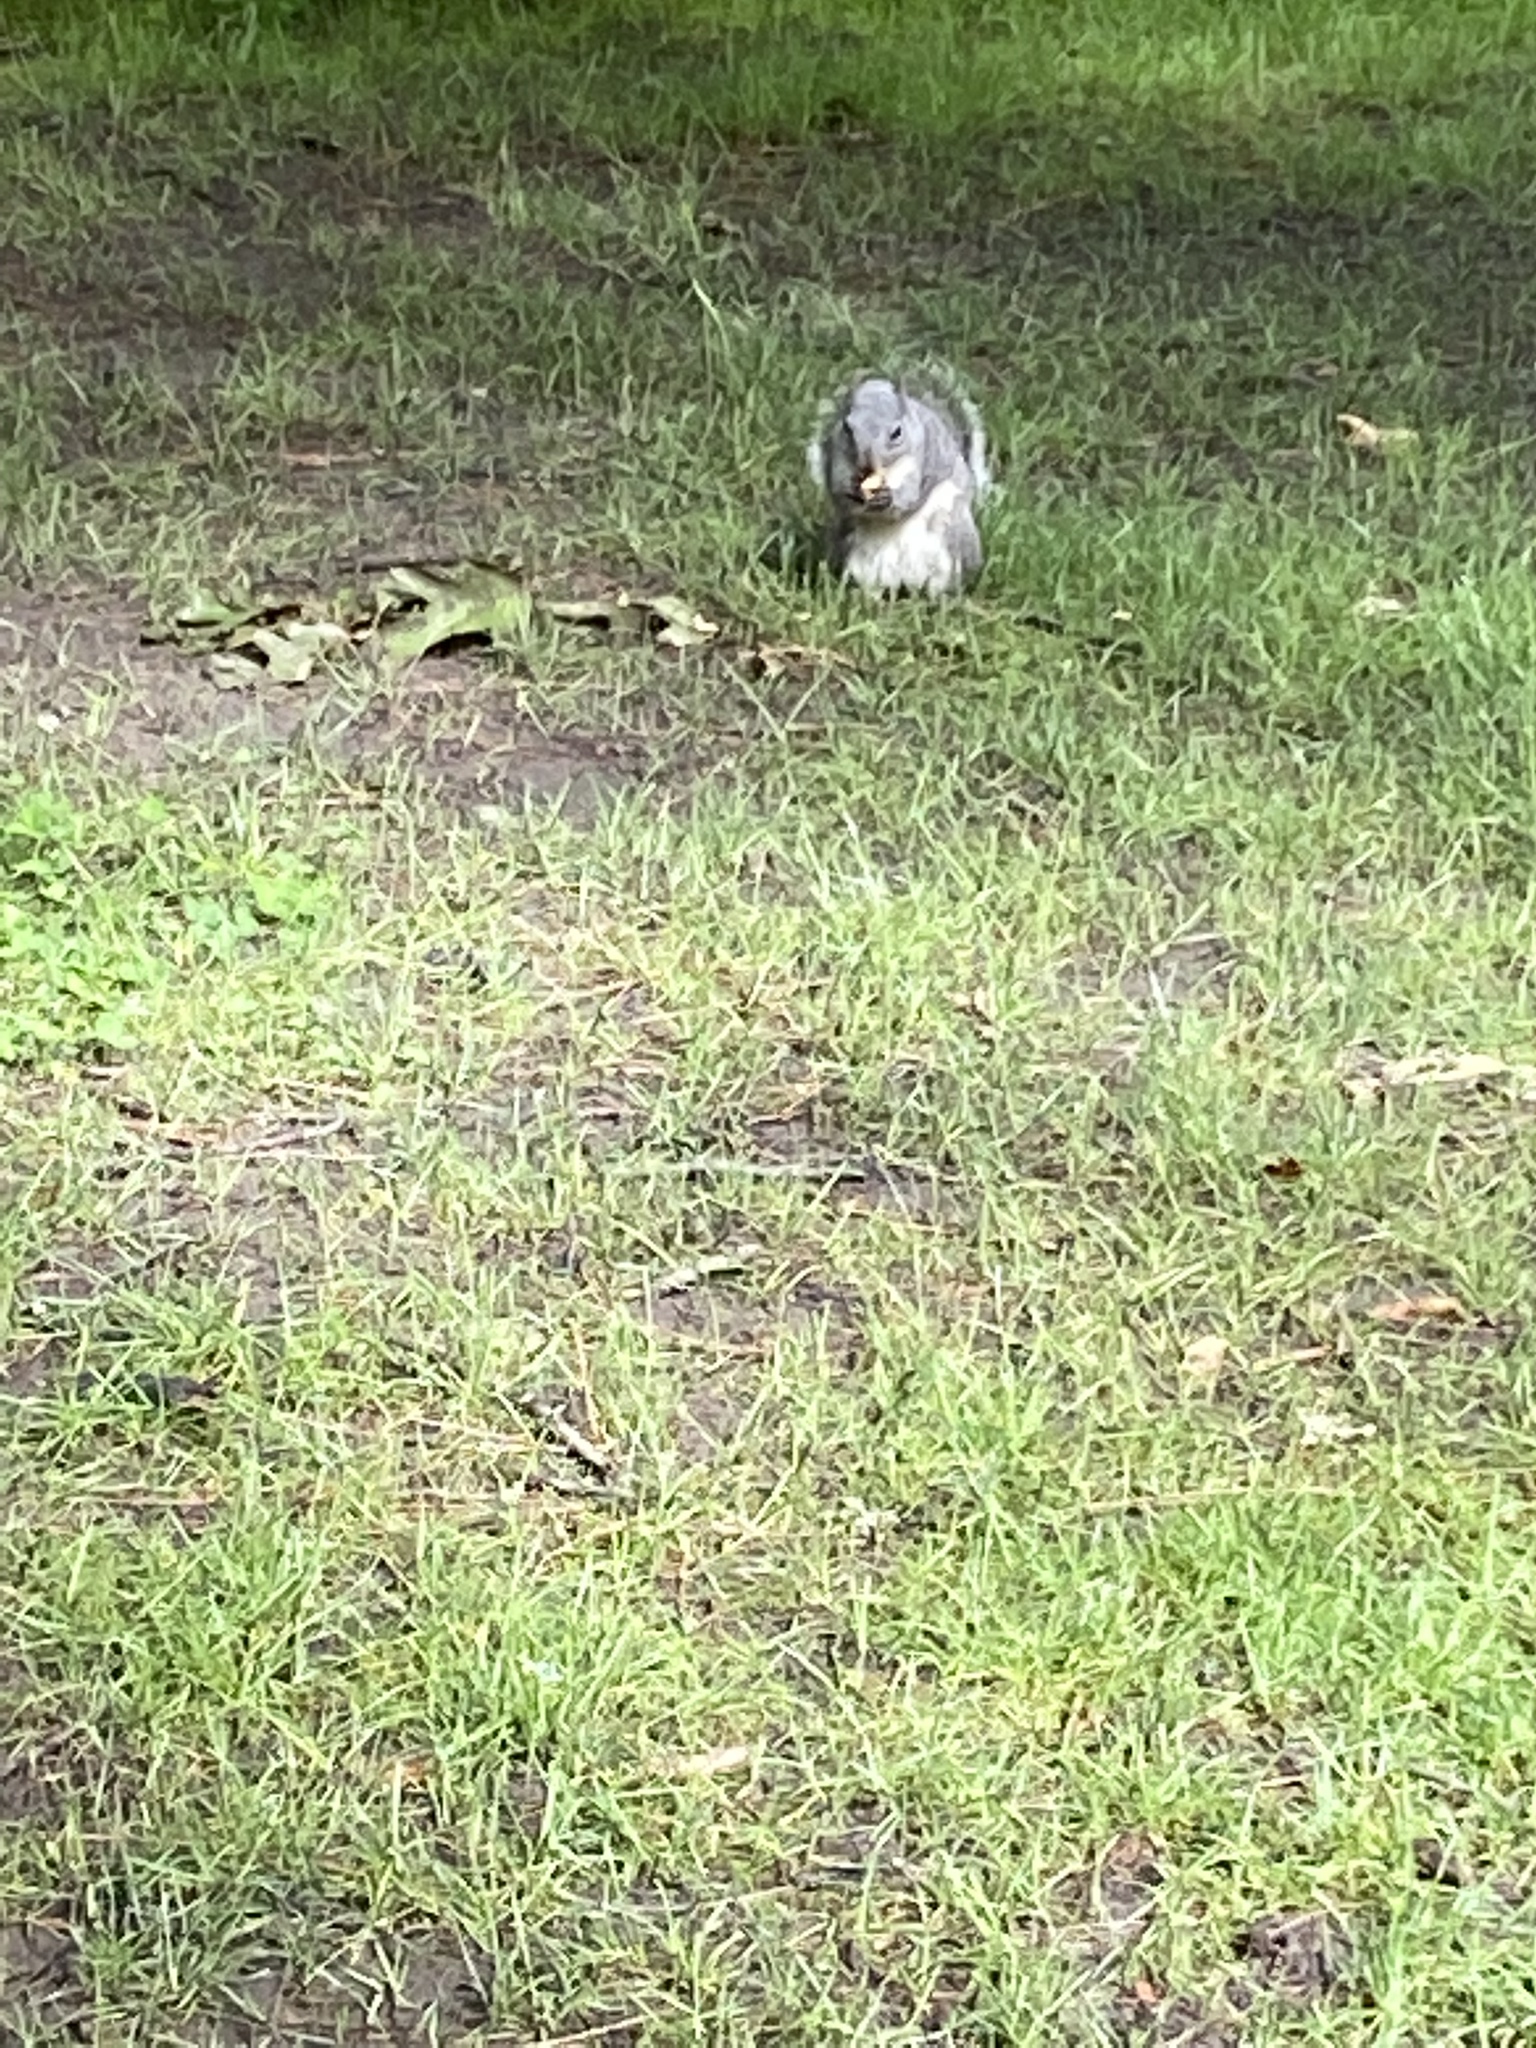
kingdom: Animalia
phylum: Chordata
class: Mammalia
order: Rodentia
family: Sciuridae
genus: Sciurus
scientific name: Sciurus griseus
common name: Western gray squirrel
